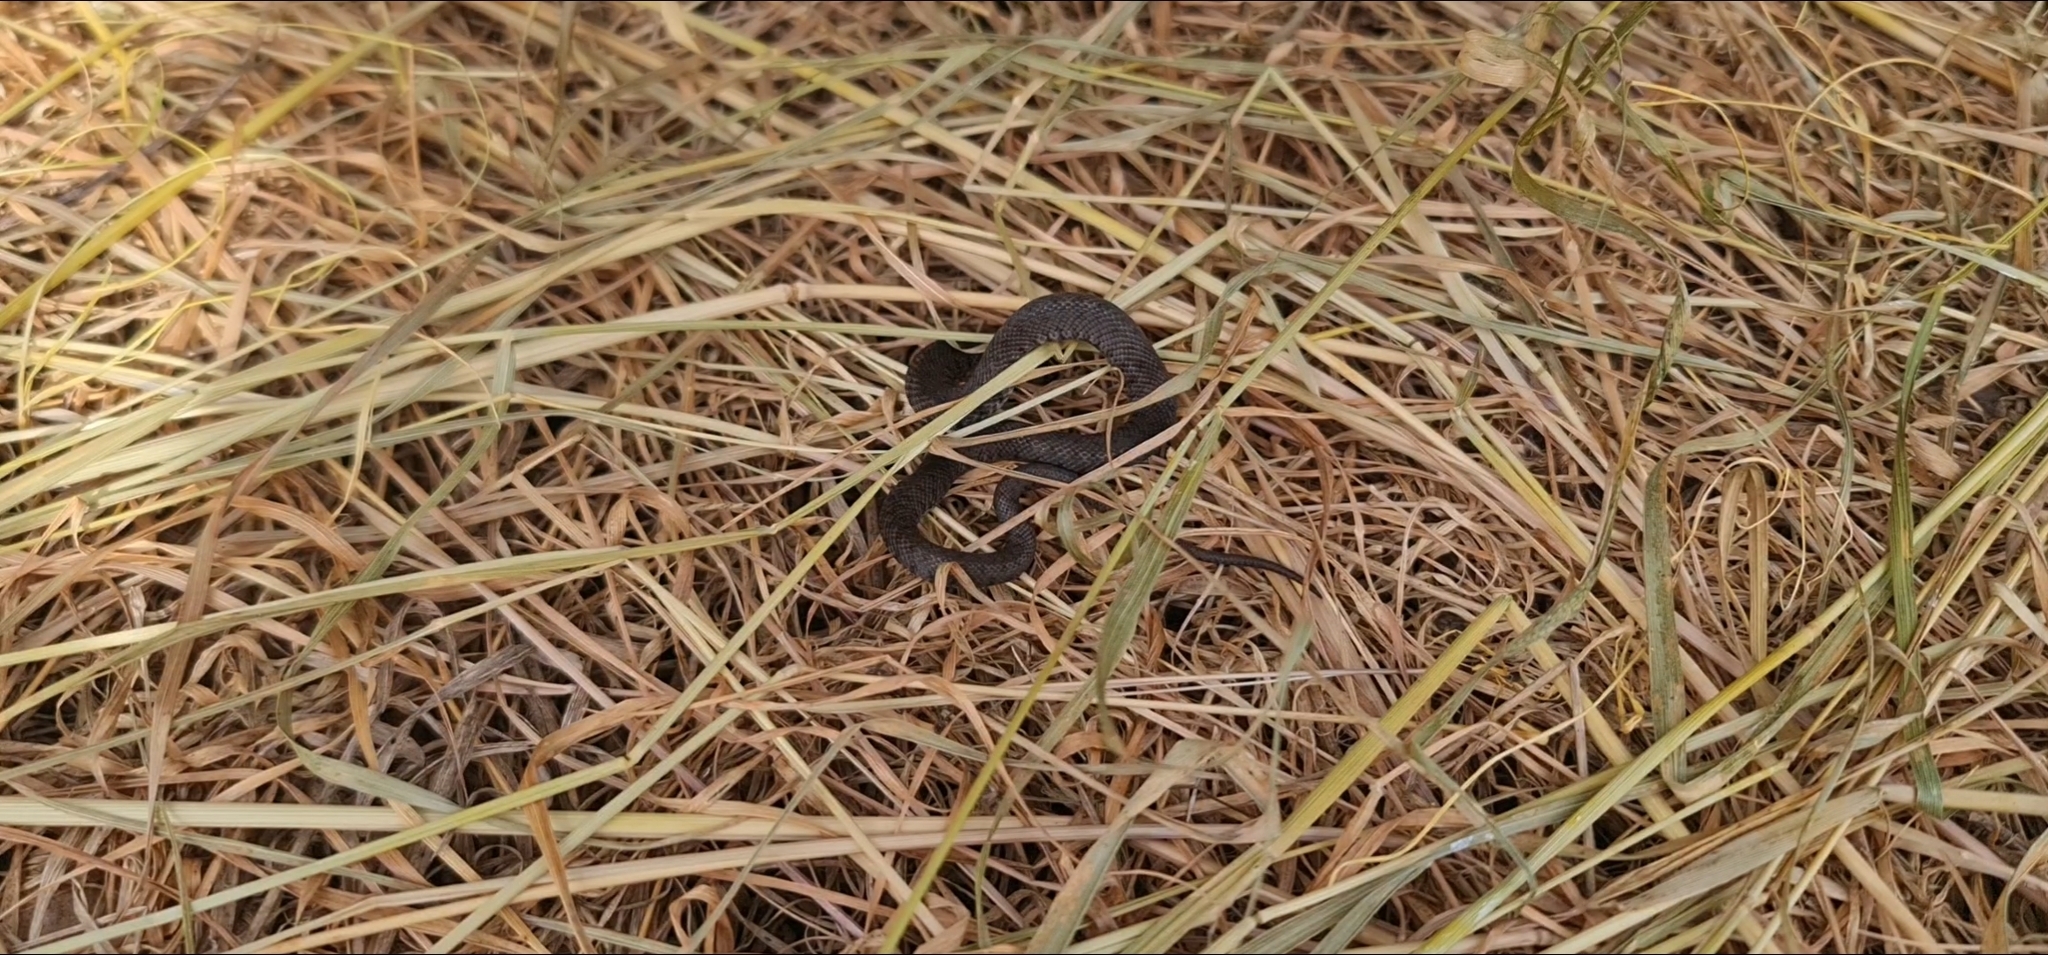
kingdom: Animalia
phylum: Chordata
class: Squamata
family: Colubridae
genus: Natrix
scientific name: Natrix helvetica
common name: Banded grass snake
